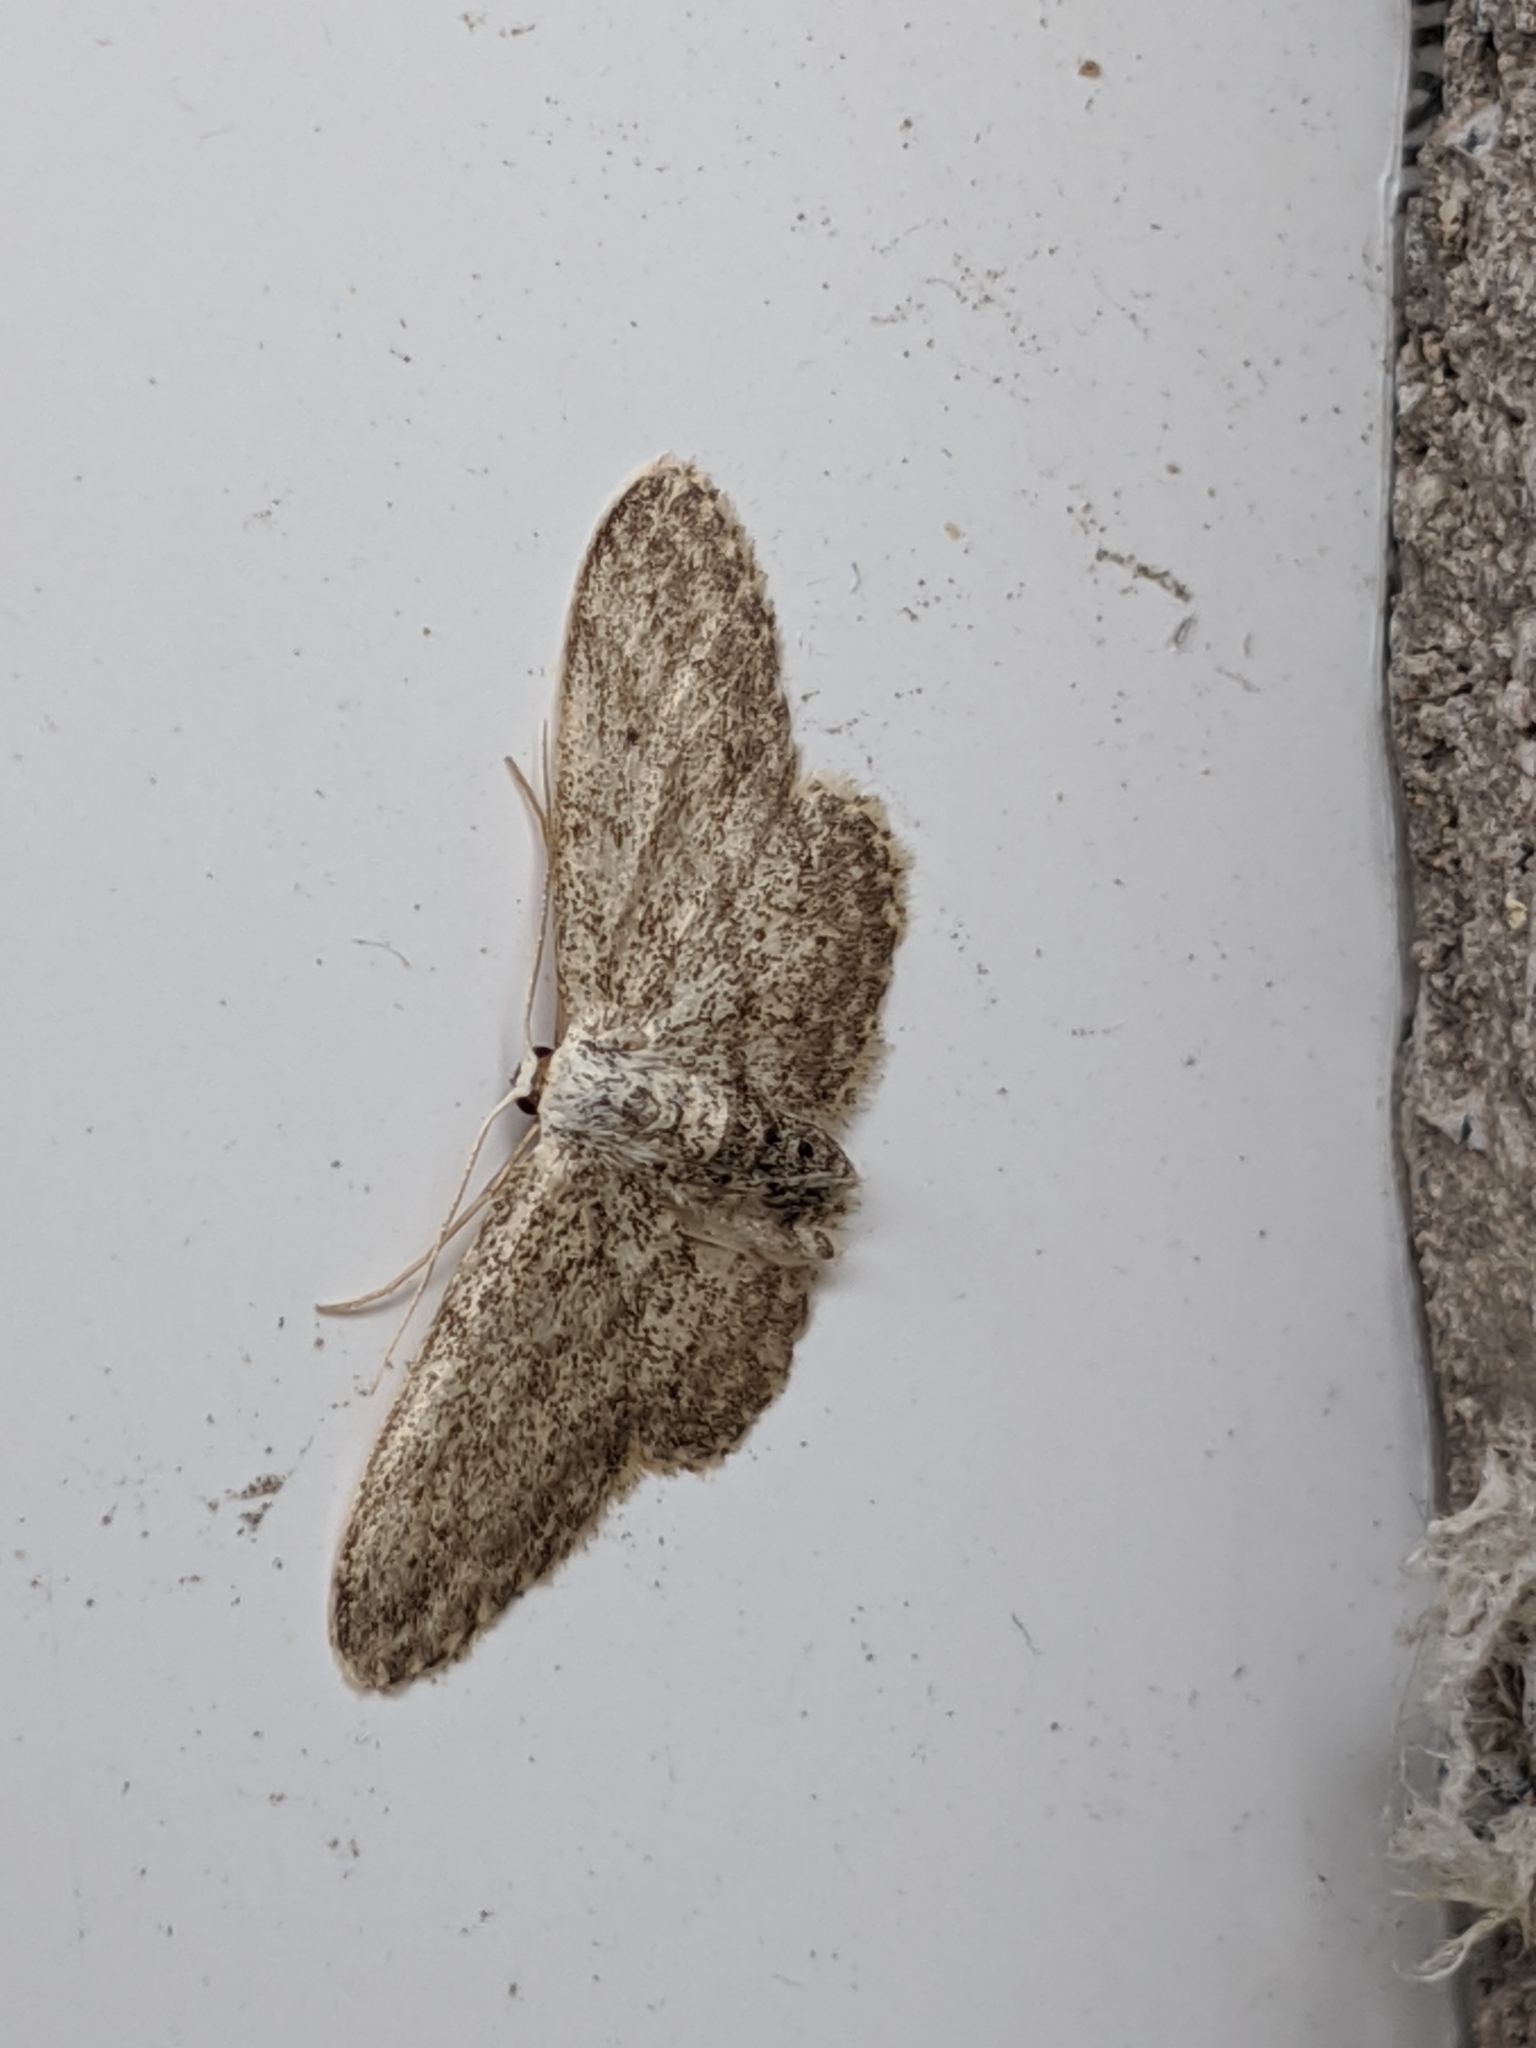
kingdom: Animalia
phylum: Arthropoda
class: Insecta
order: Lepidoptera
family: Geometridae
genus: Idaea
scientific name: Idaea seriata
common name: Small dusty wave
